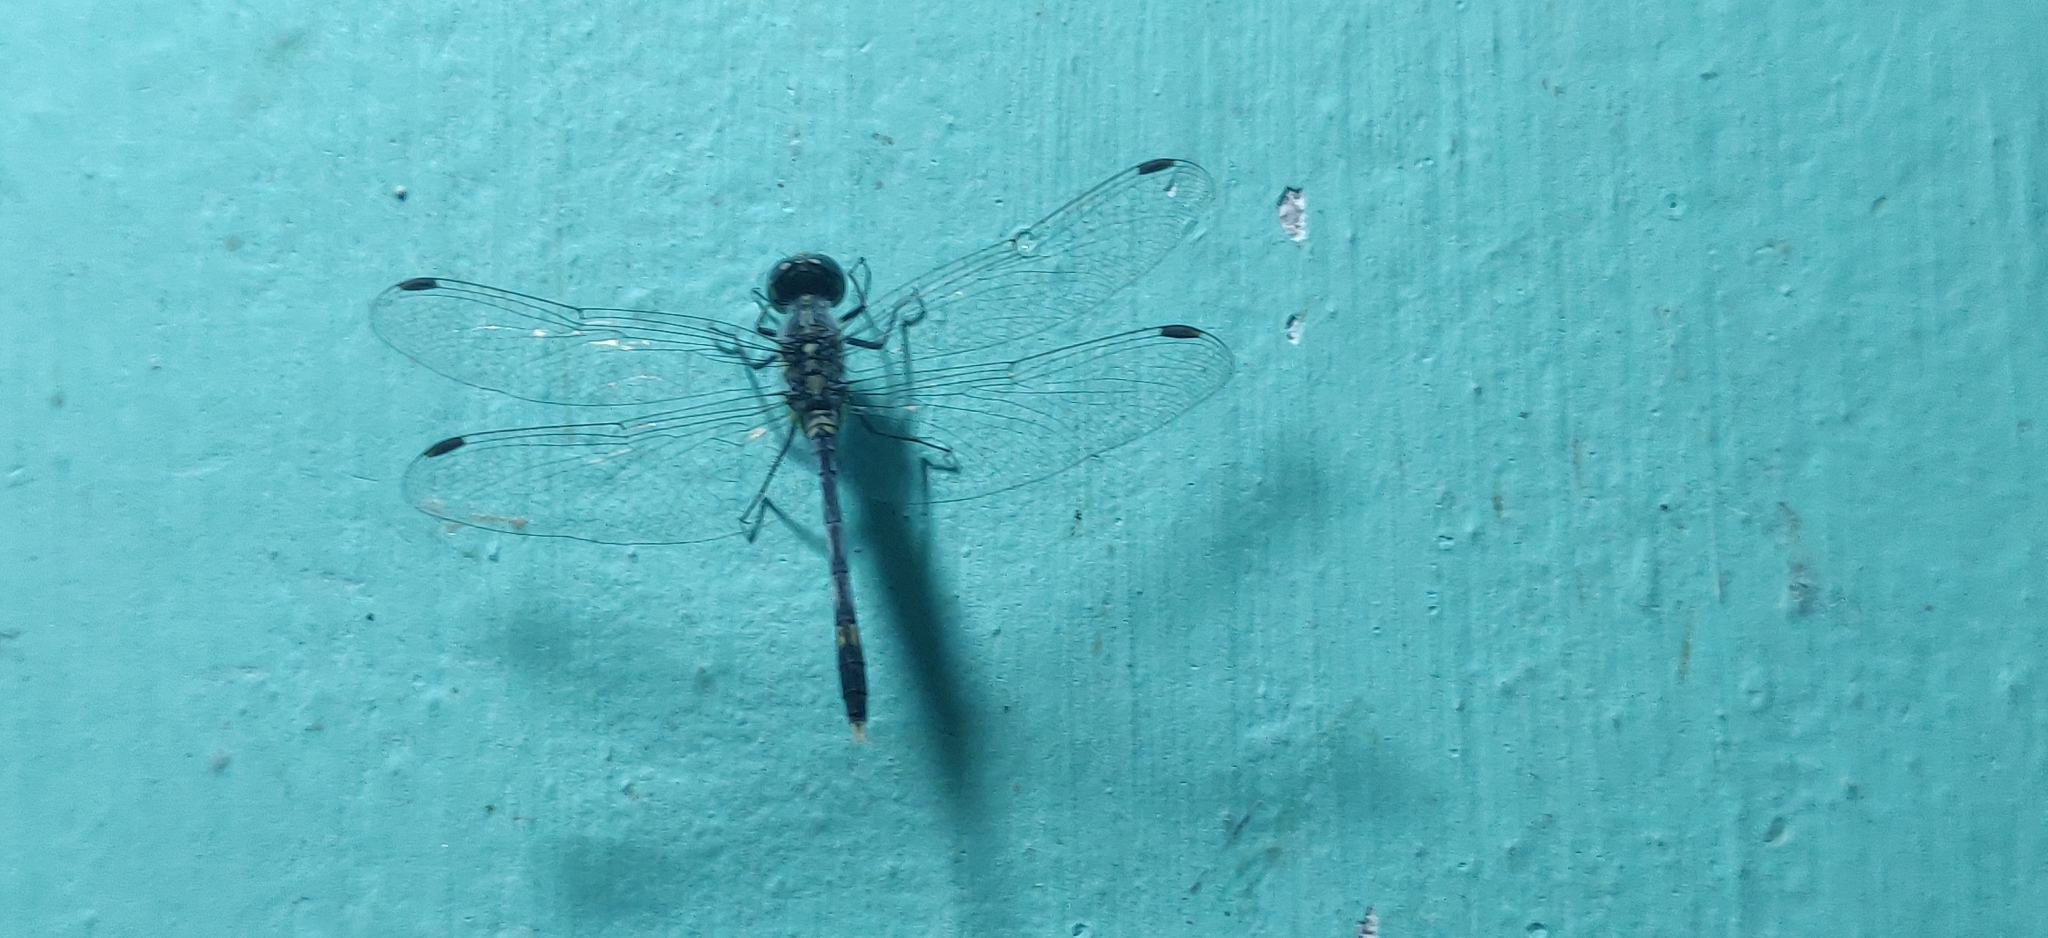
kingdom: Animalia
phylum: Arthropoda
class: Insecta
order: Odonata
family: Libellulidae
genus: Diplacodes
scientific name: Diplacodes trivialis
